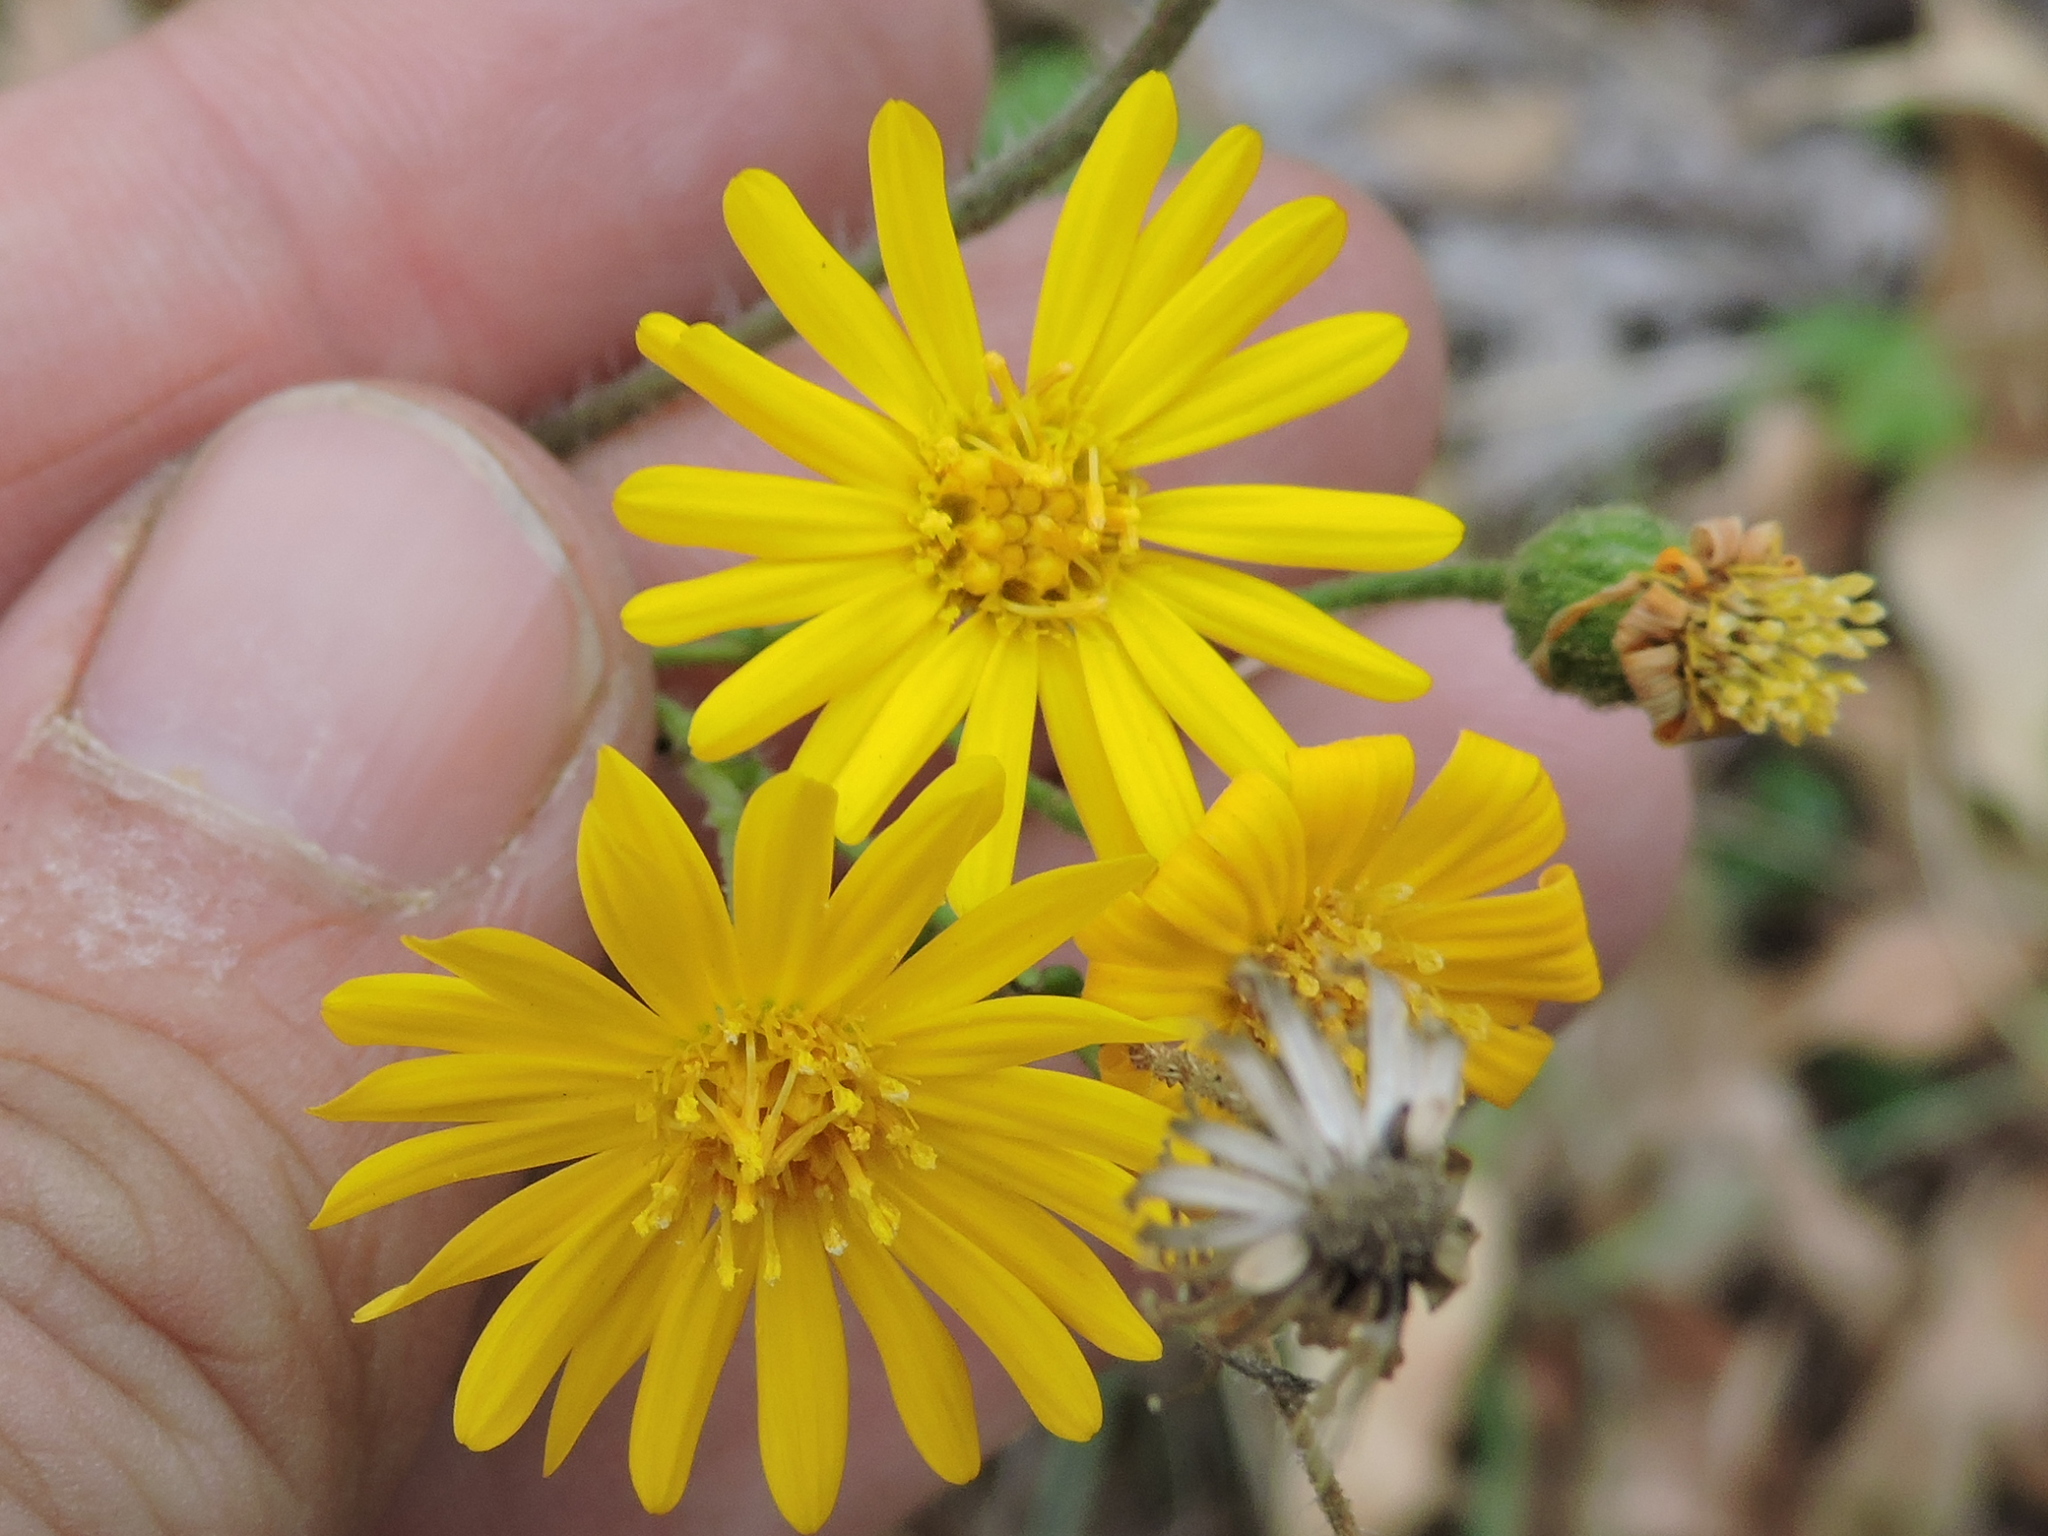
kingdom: Plantae
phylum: Tracheophyta
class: Magnoliopsida
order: Asterales
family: Asteraceae
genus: Heterotheca
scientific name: Heterotheca subaxillaris
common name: Camphorweed
